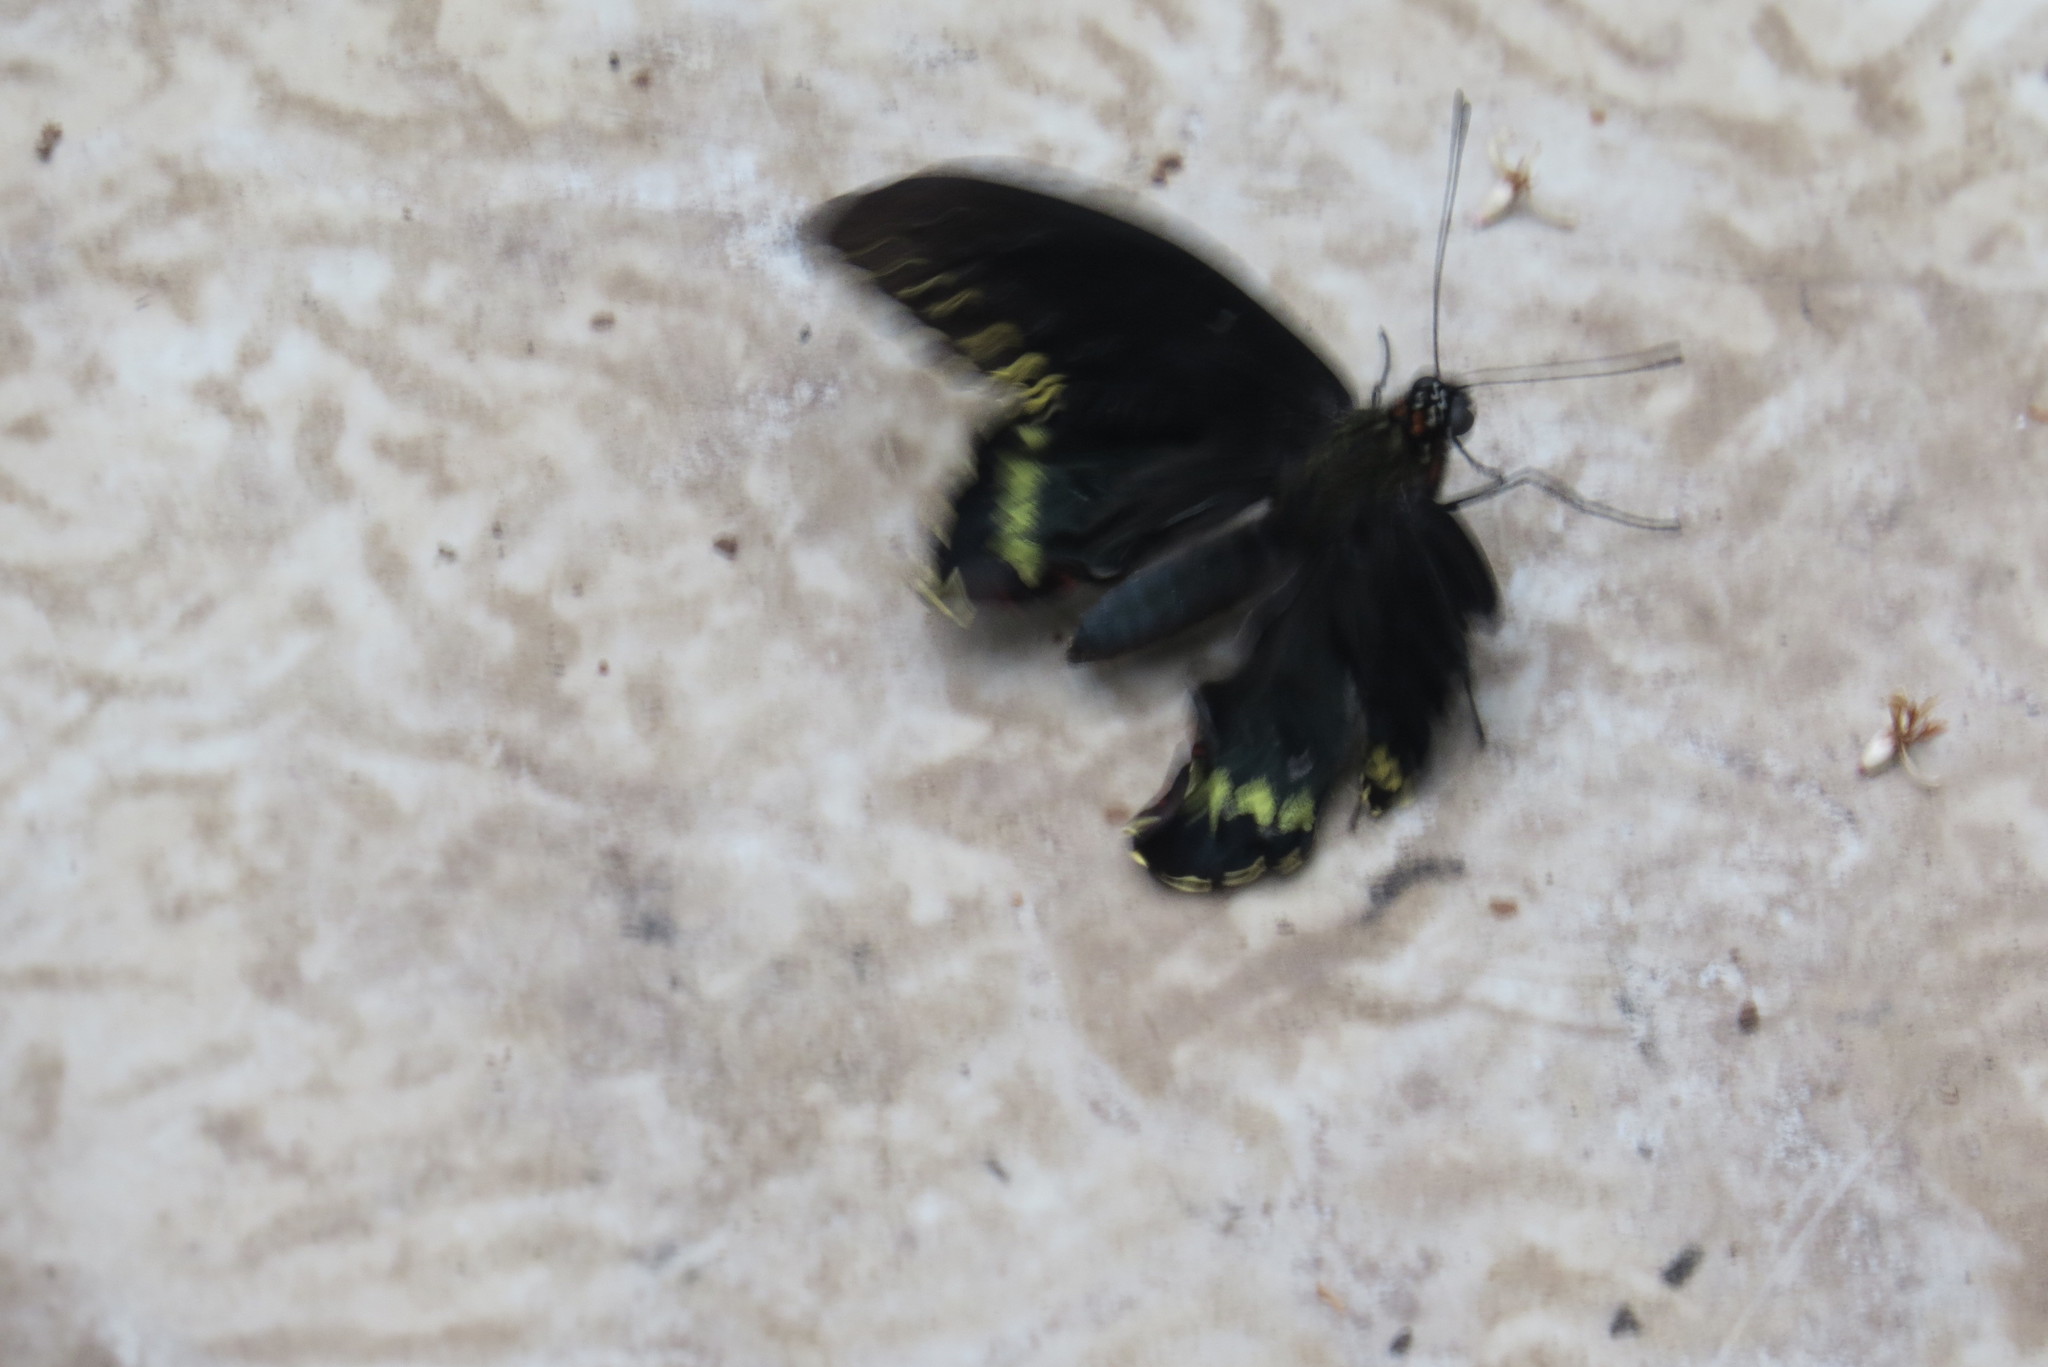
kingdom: Animalia
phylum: Arthropoda
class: Insecta
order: Lepidoptera
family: Papilionidae
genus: Battus
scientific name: Battus polydamas
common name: Polydamas swallowtail
